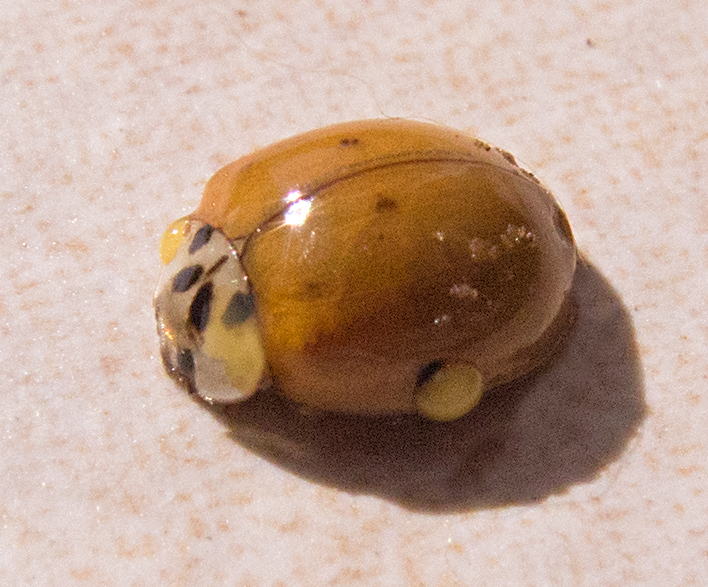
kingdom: Animalia
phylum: Arthropoda
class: Insecta
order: Coleoptera
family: Coccinellidae
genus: Harmonia
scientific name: Harmonia axyridis
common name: Harlequin ladybird
